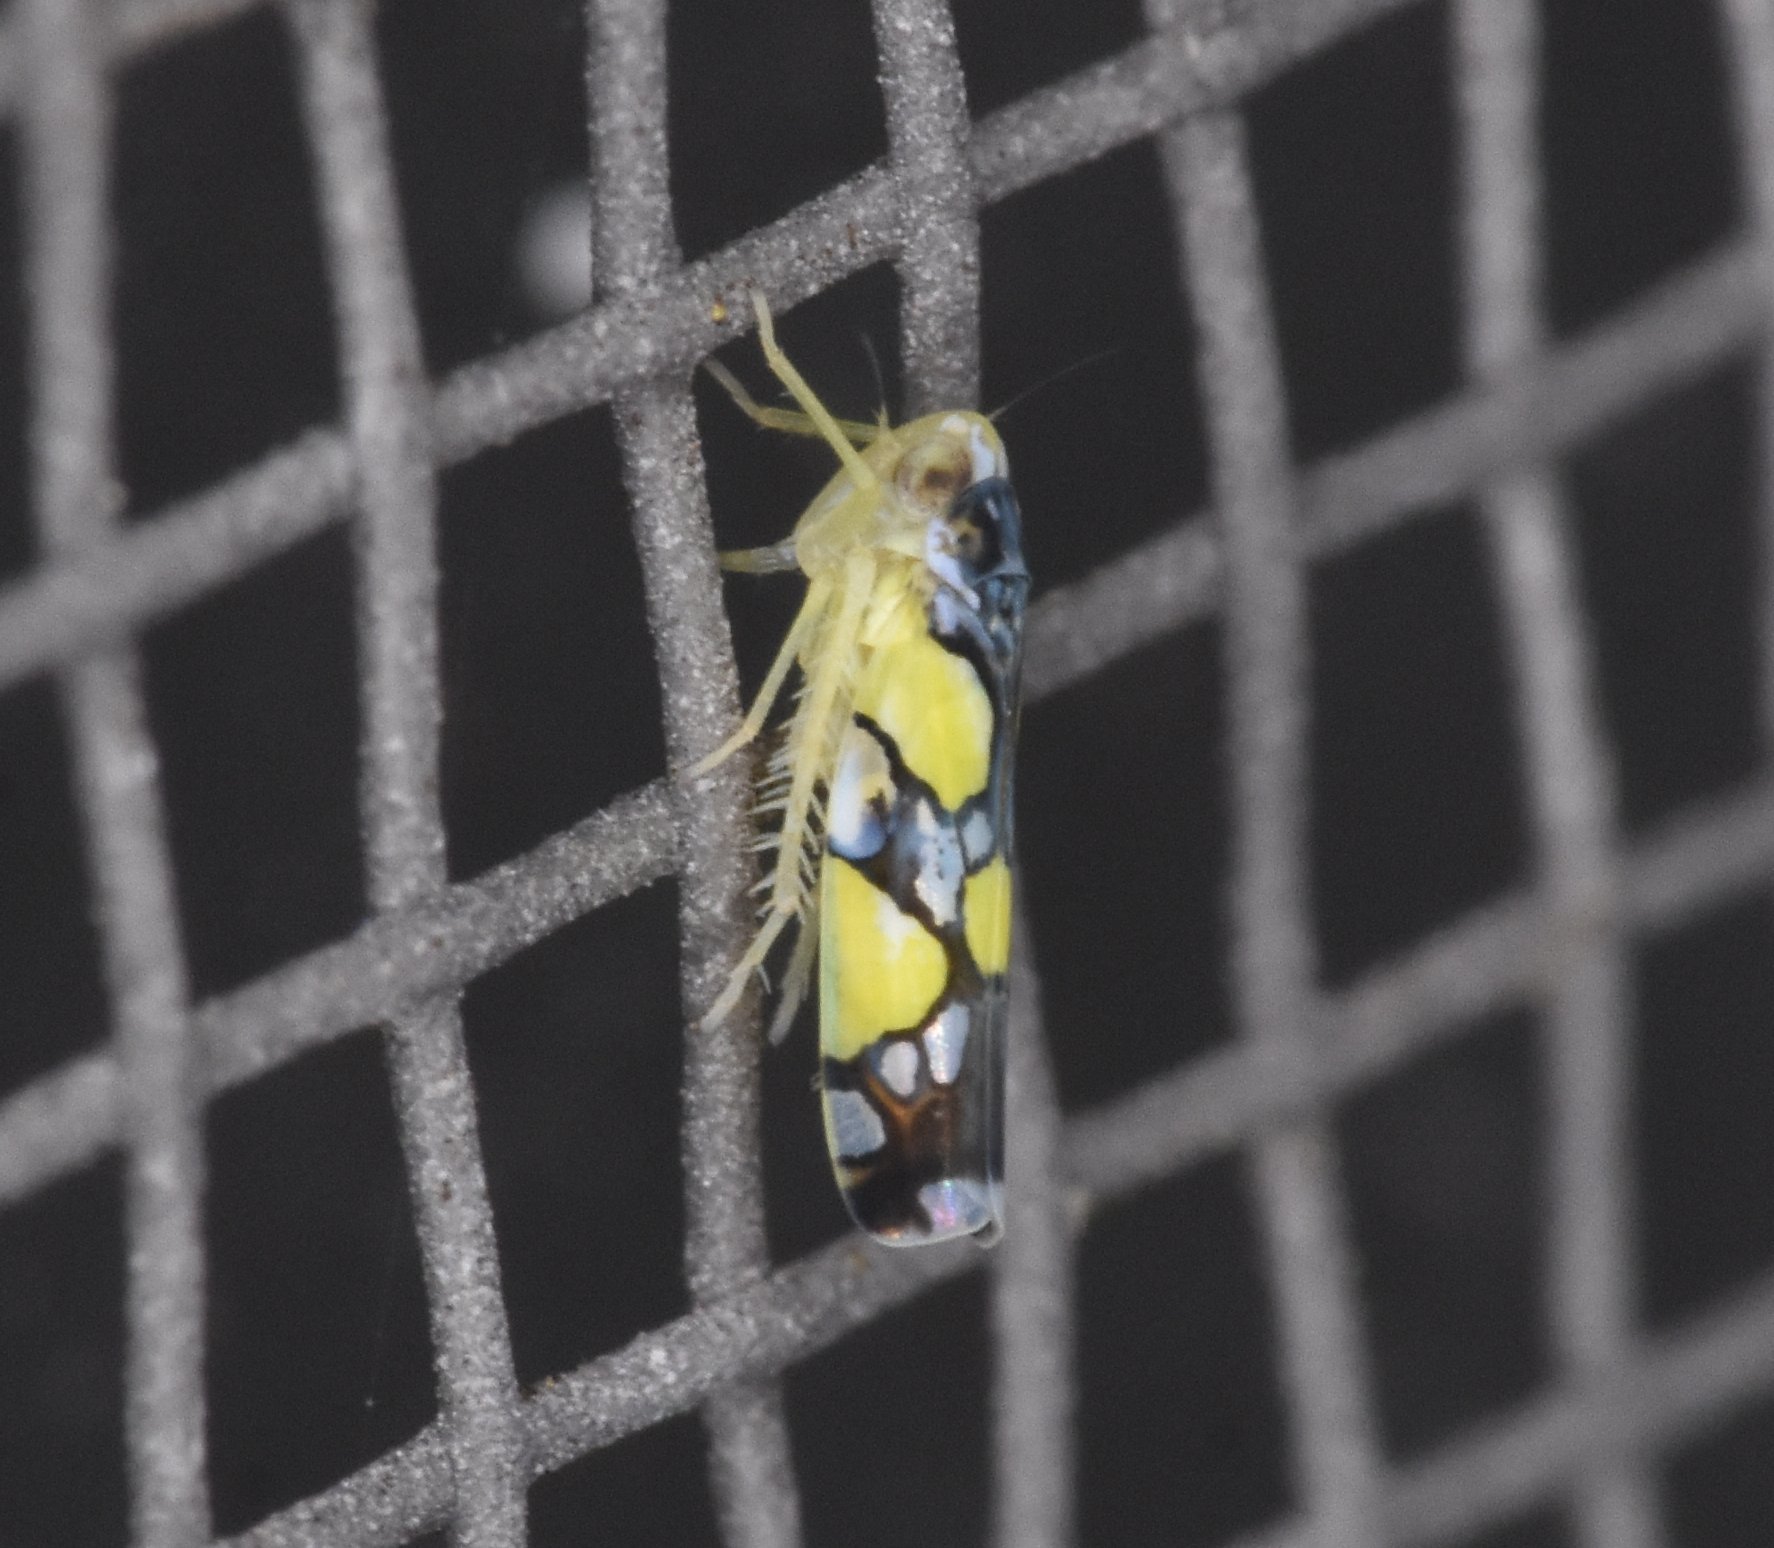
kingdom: Animalia
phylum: Arthropoda
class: Insecta
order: Hemiptera
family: Cicadellidae
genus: Protalebrella
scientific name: Protalebrella brasiliensis
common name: Brasilian leafhopper
